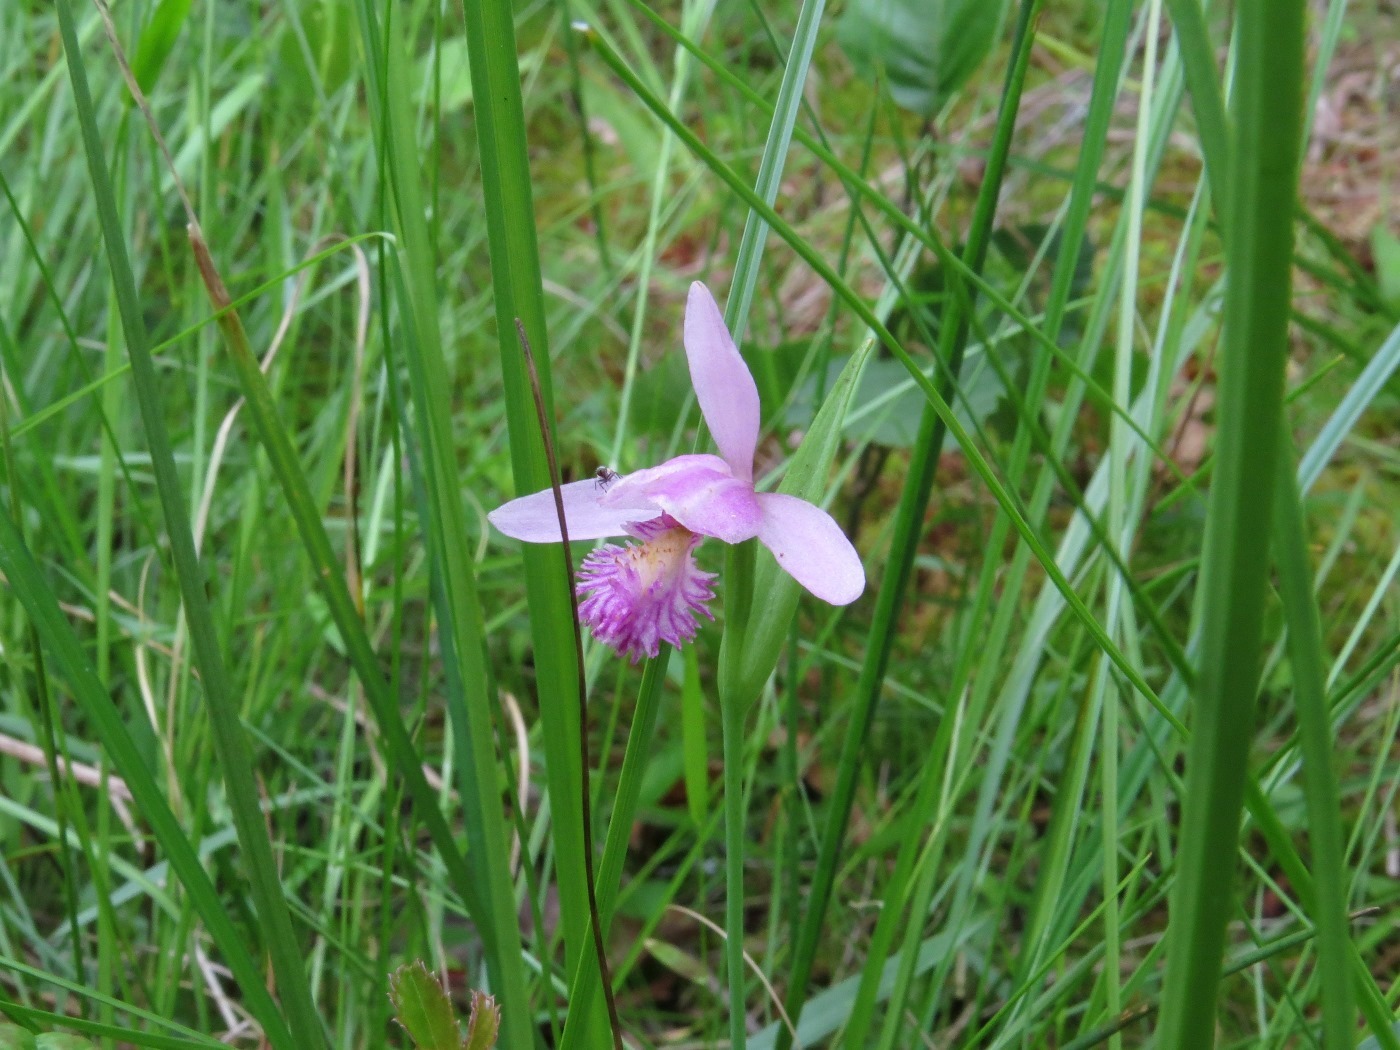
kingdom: Plantae
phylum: Tracheophyta
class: Liliopsida
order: Asparagales
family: Orchidaceae
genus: Pogonia
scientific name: Pogonia ophioglossoides
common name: Rose pogonia
